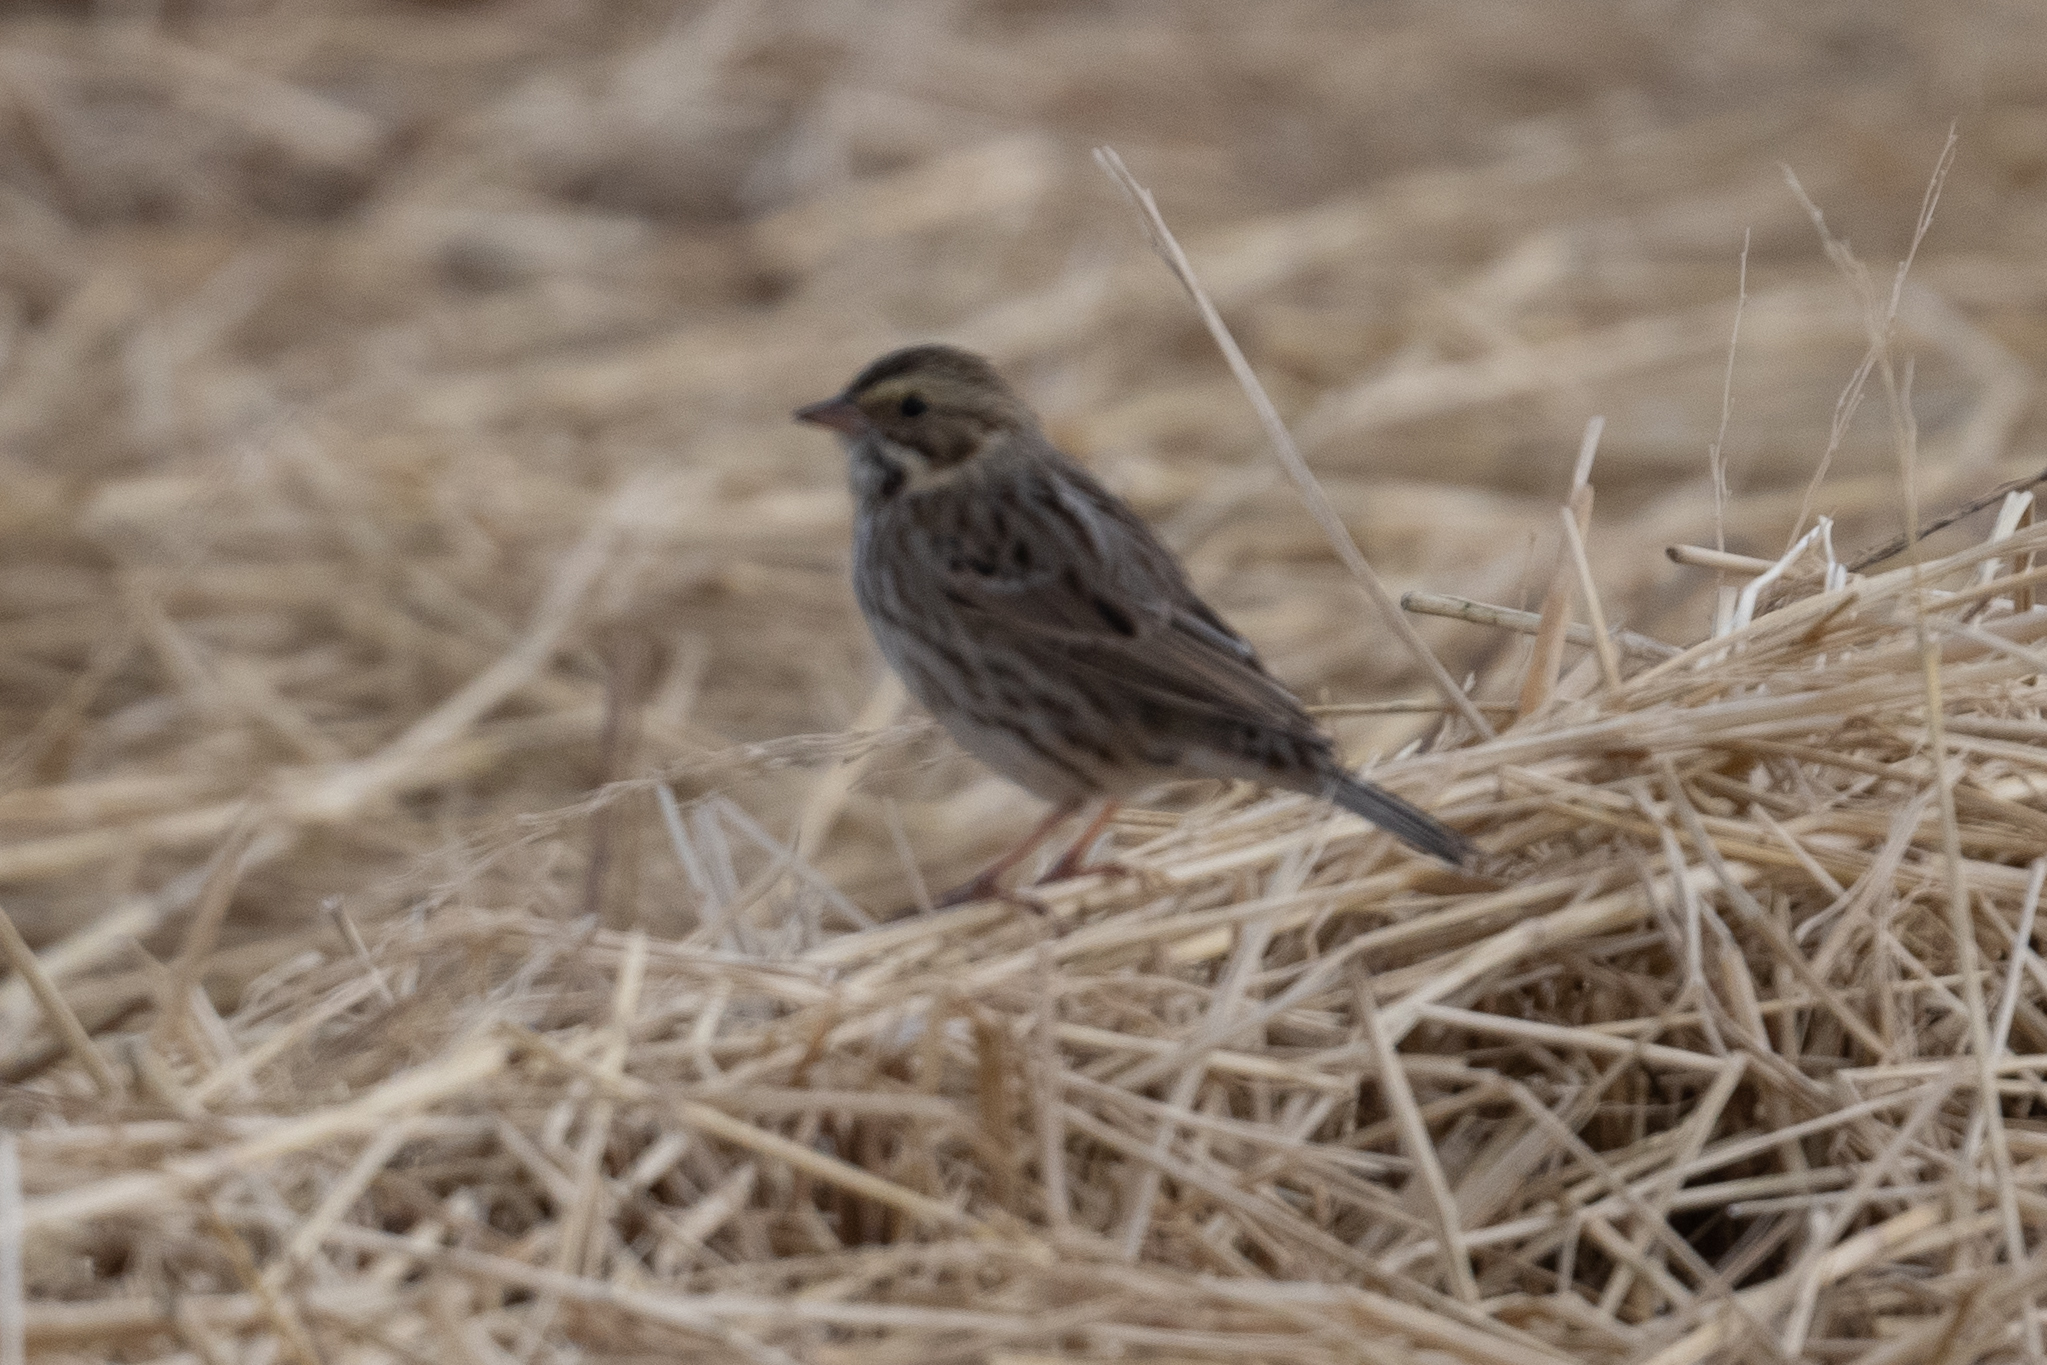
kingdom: Animalia
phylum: Chordata
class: Aves
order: Passeriformes
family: Passerellidae
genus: Passerculus
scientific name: Passerculus sandwichensis
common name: Savannah sparrow
